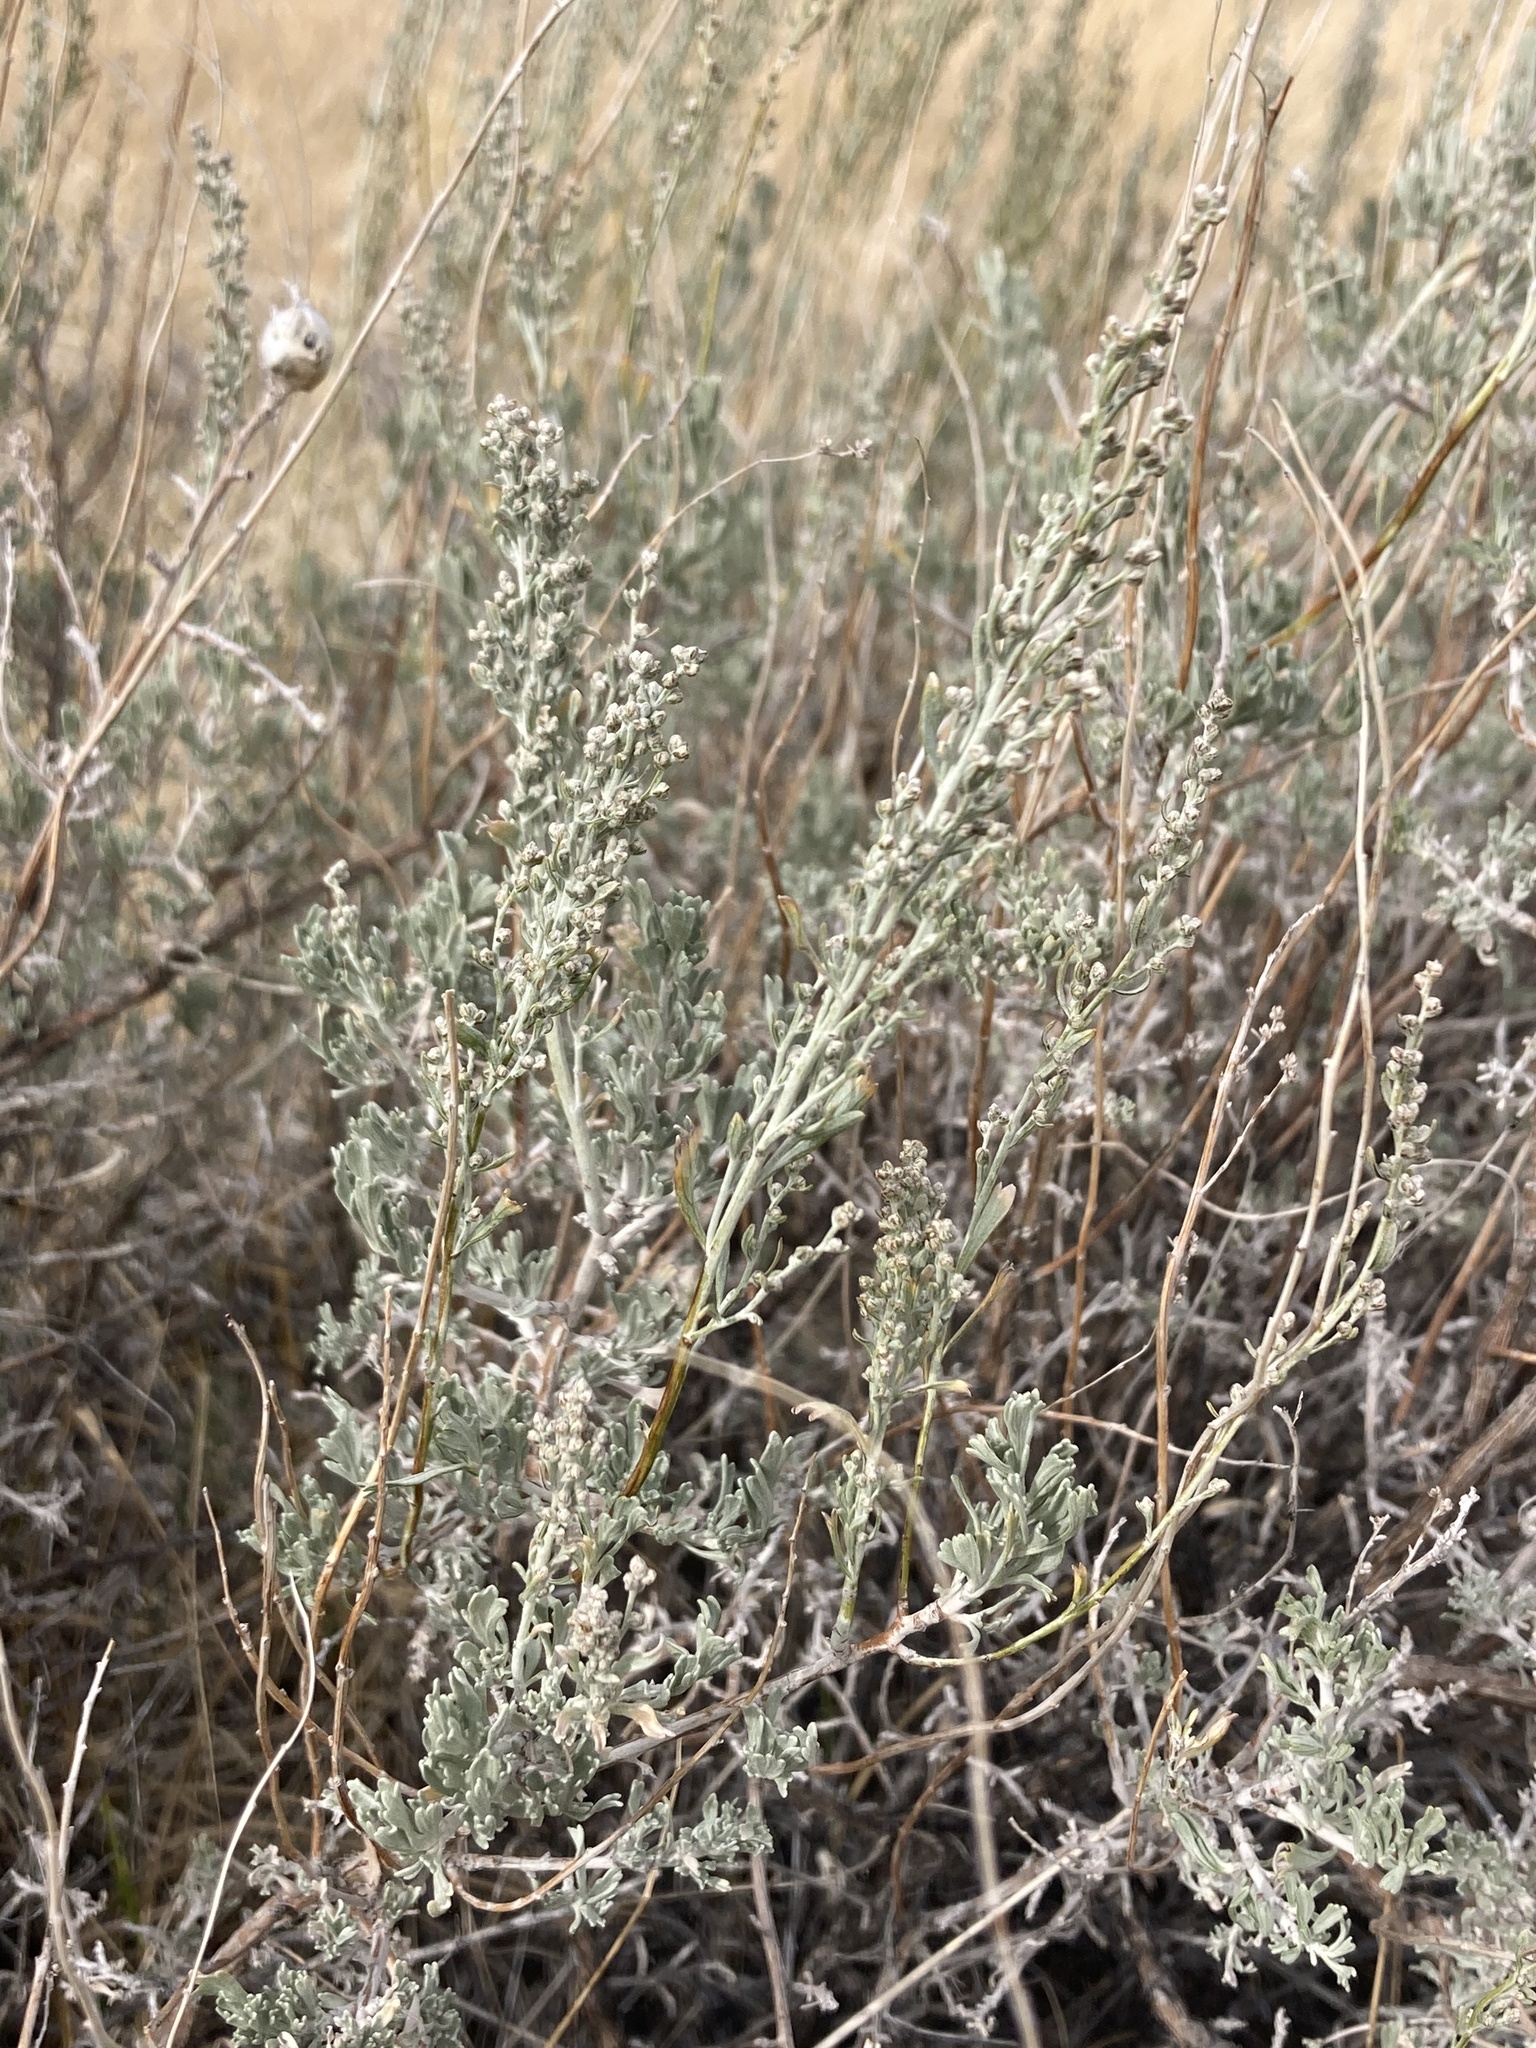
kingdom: Plantae
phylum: Tracheophyta
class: Magnoliopsida
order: Asterales
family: Asteraceae
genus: Artemisia
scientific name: Artemisia tridentata
